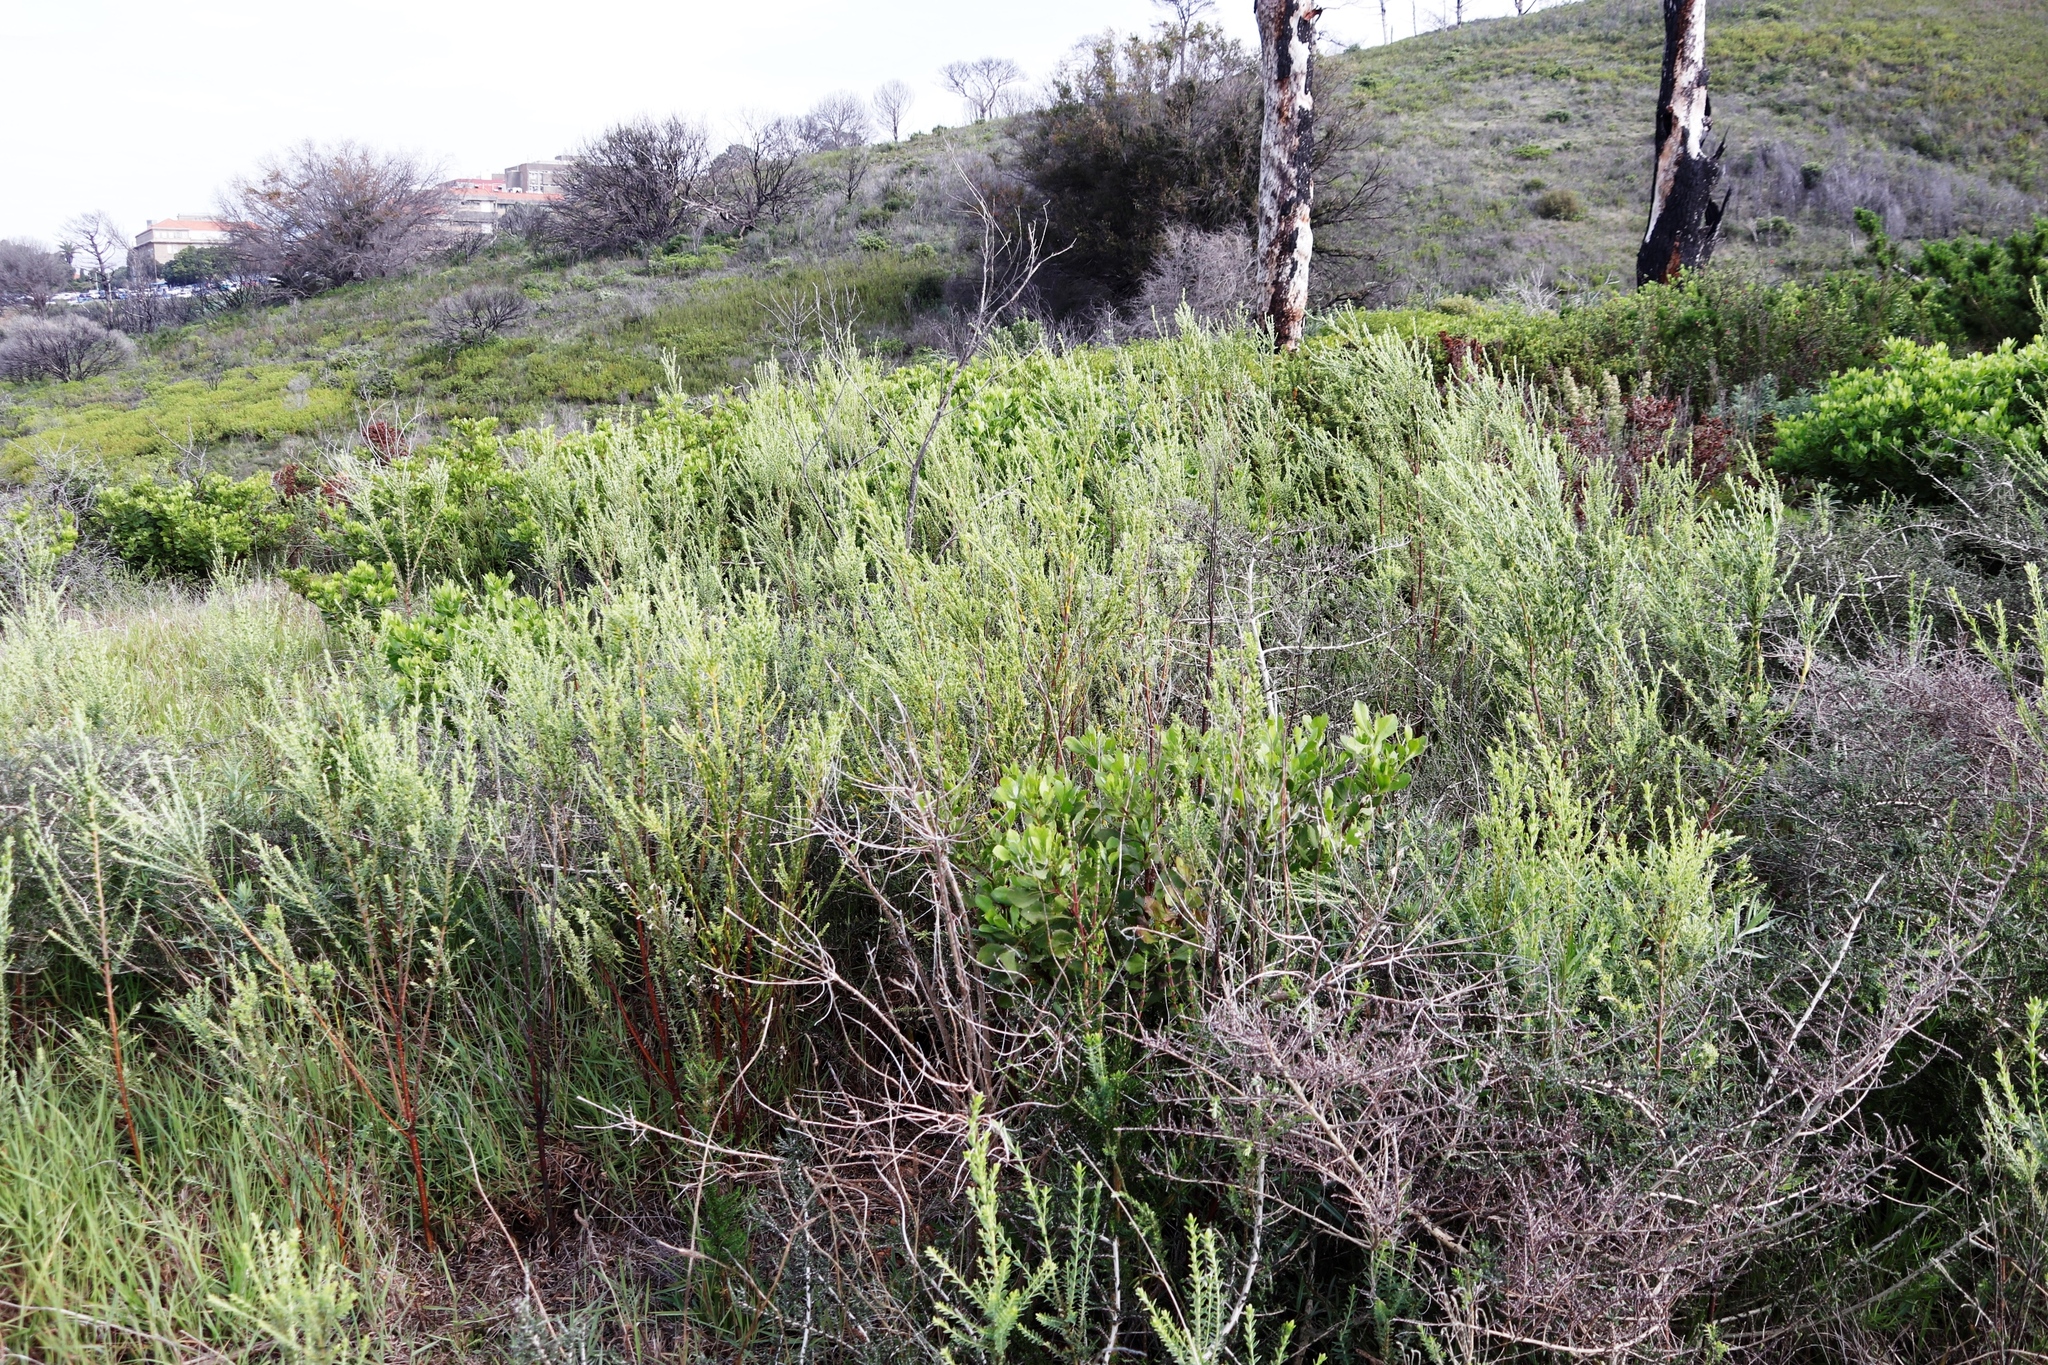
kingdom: Plantae
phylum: Tracheophyta
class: Magnoliopsida
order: Malvales
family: Thymelaeaceae
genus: Gnidia
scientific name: Gnidia sericea
